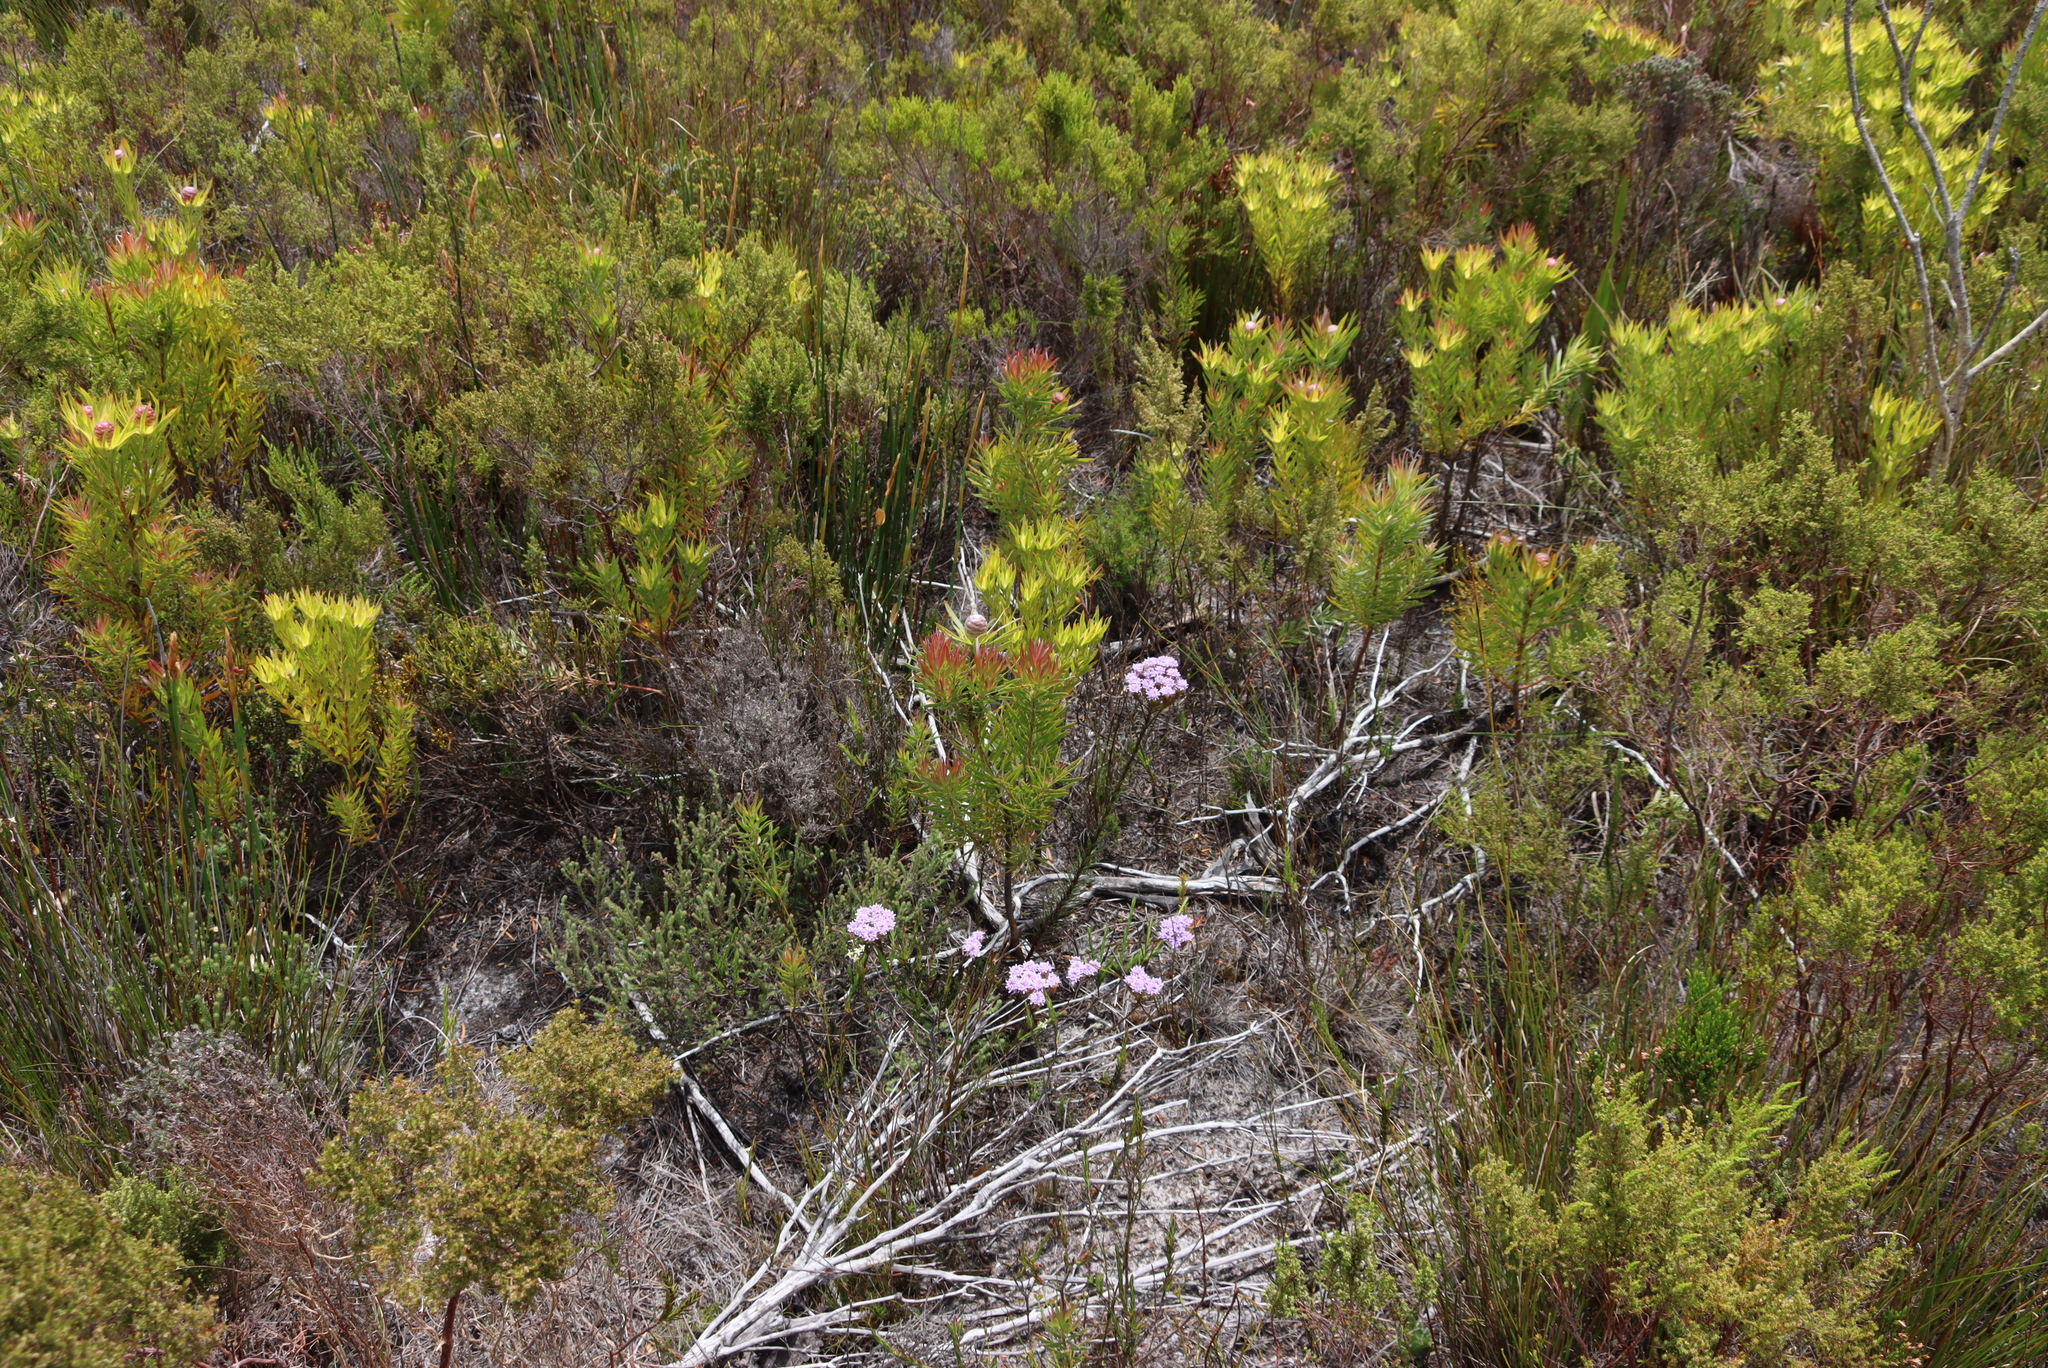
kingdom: Plantae
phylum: Tracheophyta
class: Magnoliopsida
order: Proteales
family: Proteaceae
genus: Leucadendron
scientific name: Leucadendron xanthoconus
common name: Sickle-leaf conebush
